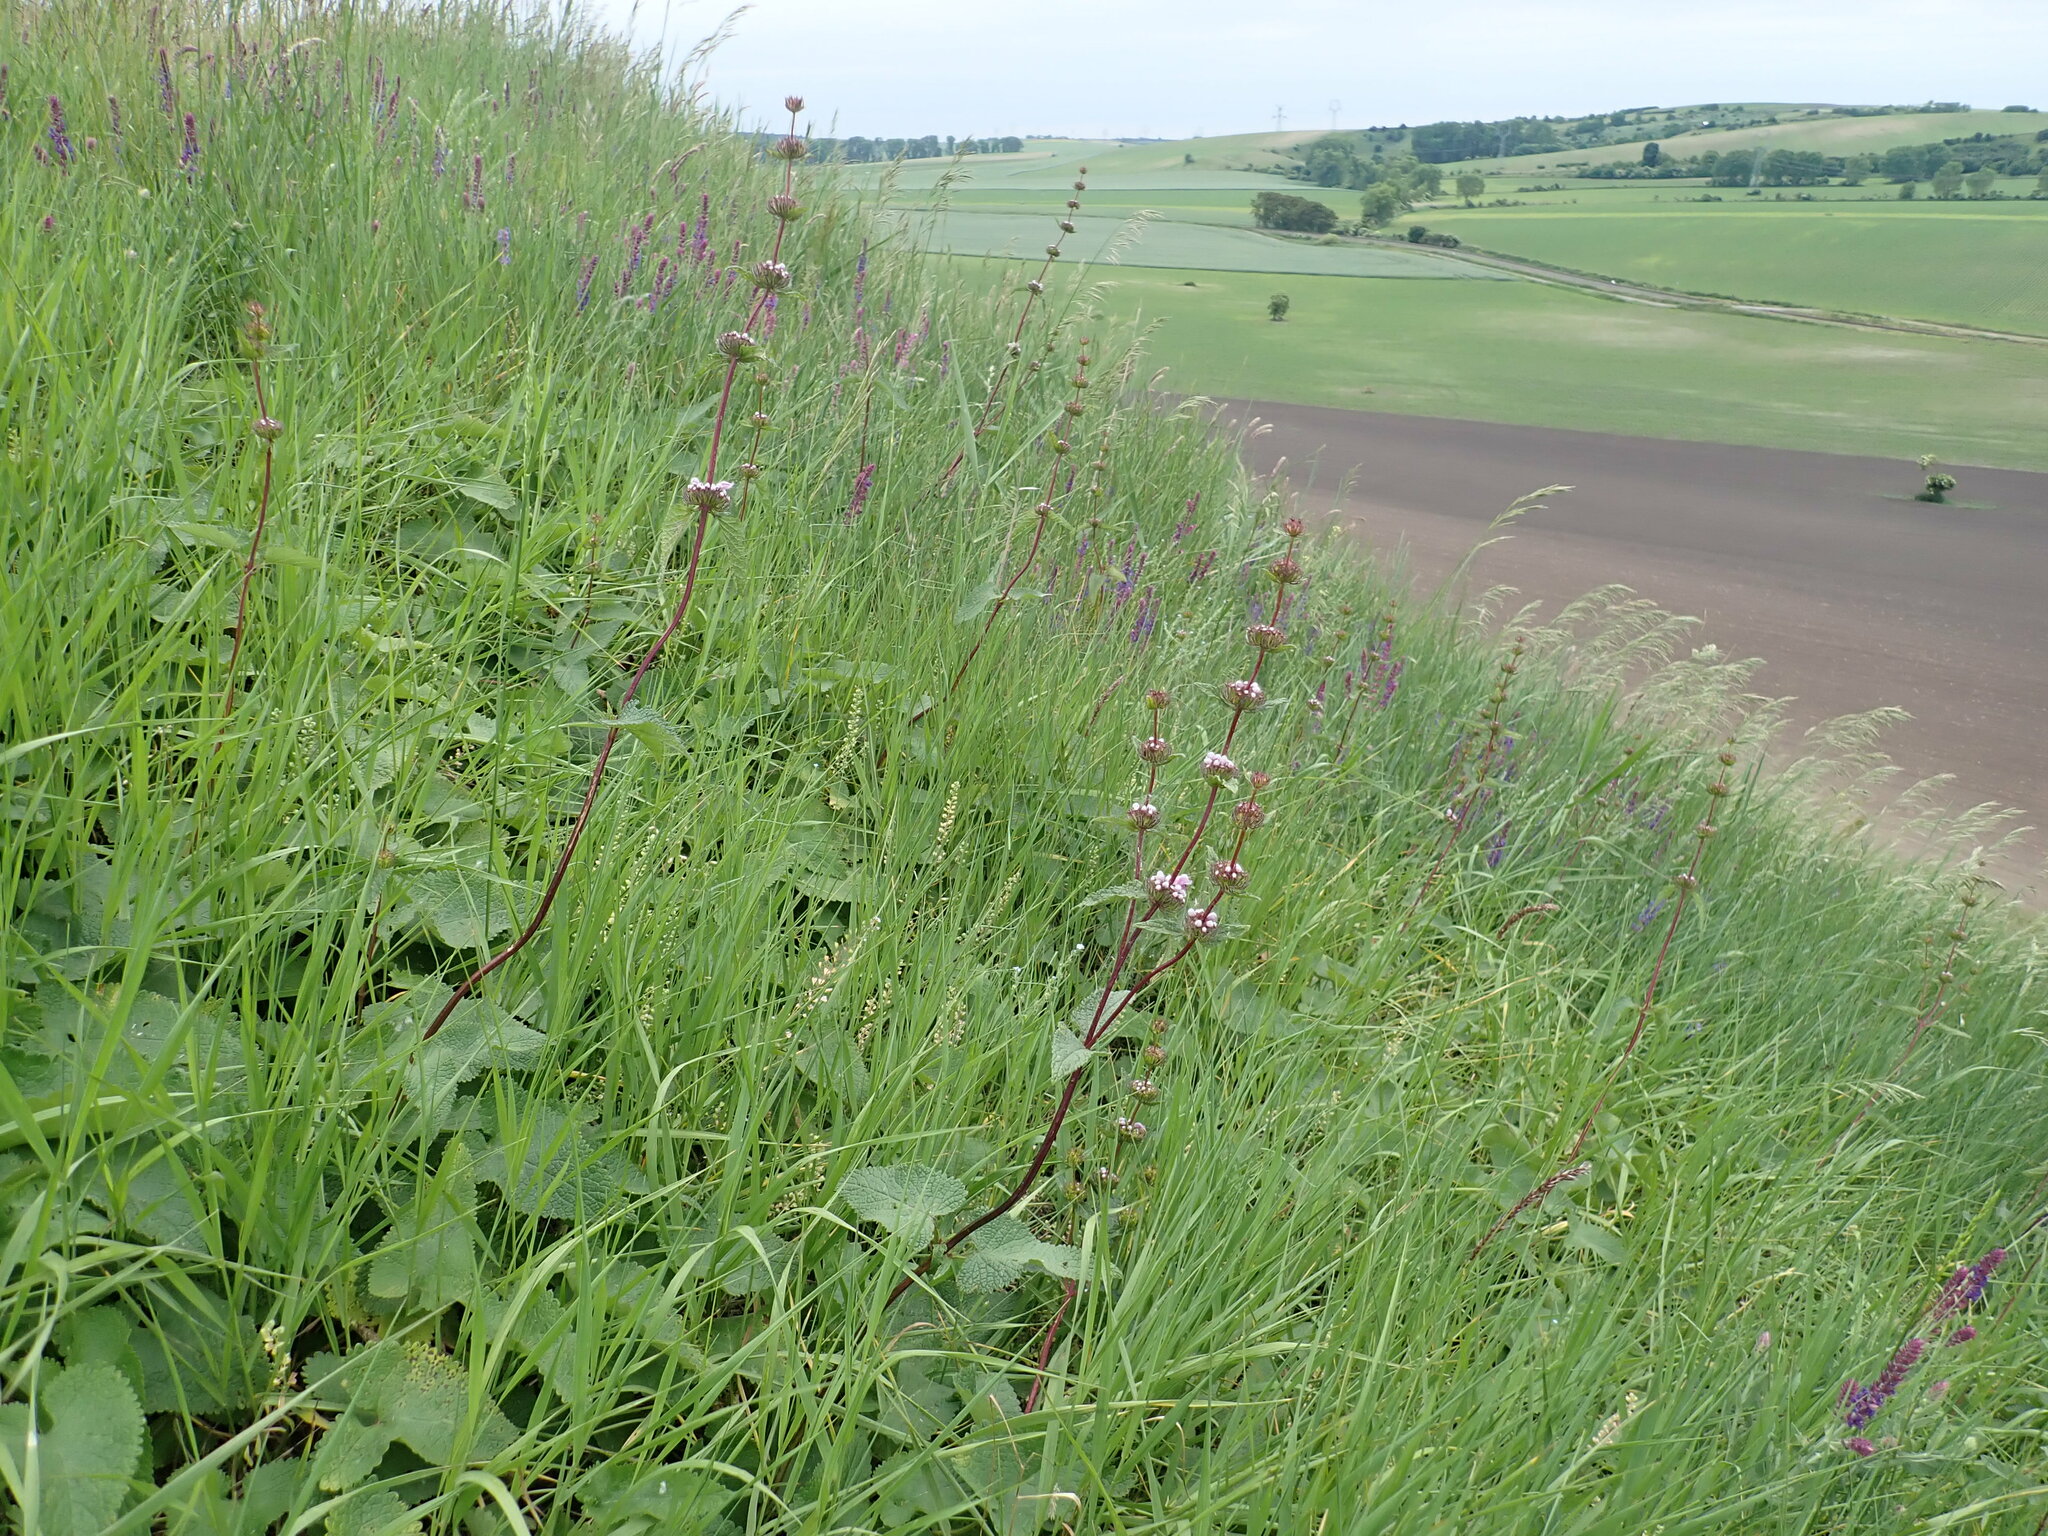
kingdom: Plantae
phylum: Tracheophyta
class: Magnoliopsida
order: Lamiales
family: Lamiaceae
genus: Phlomoides
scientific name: Phlomoides tuberosa
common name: Tuberous jerusalem sage
